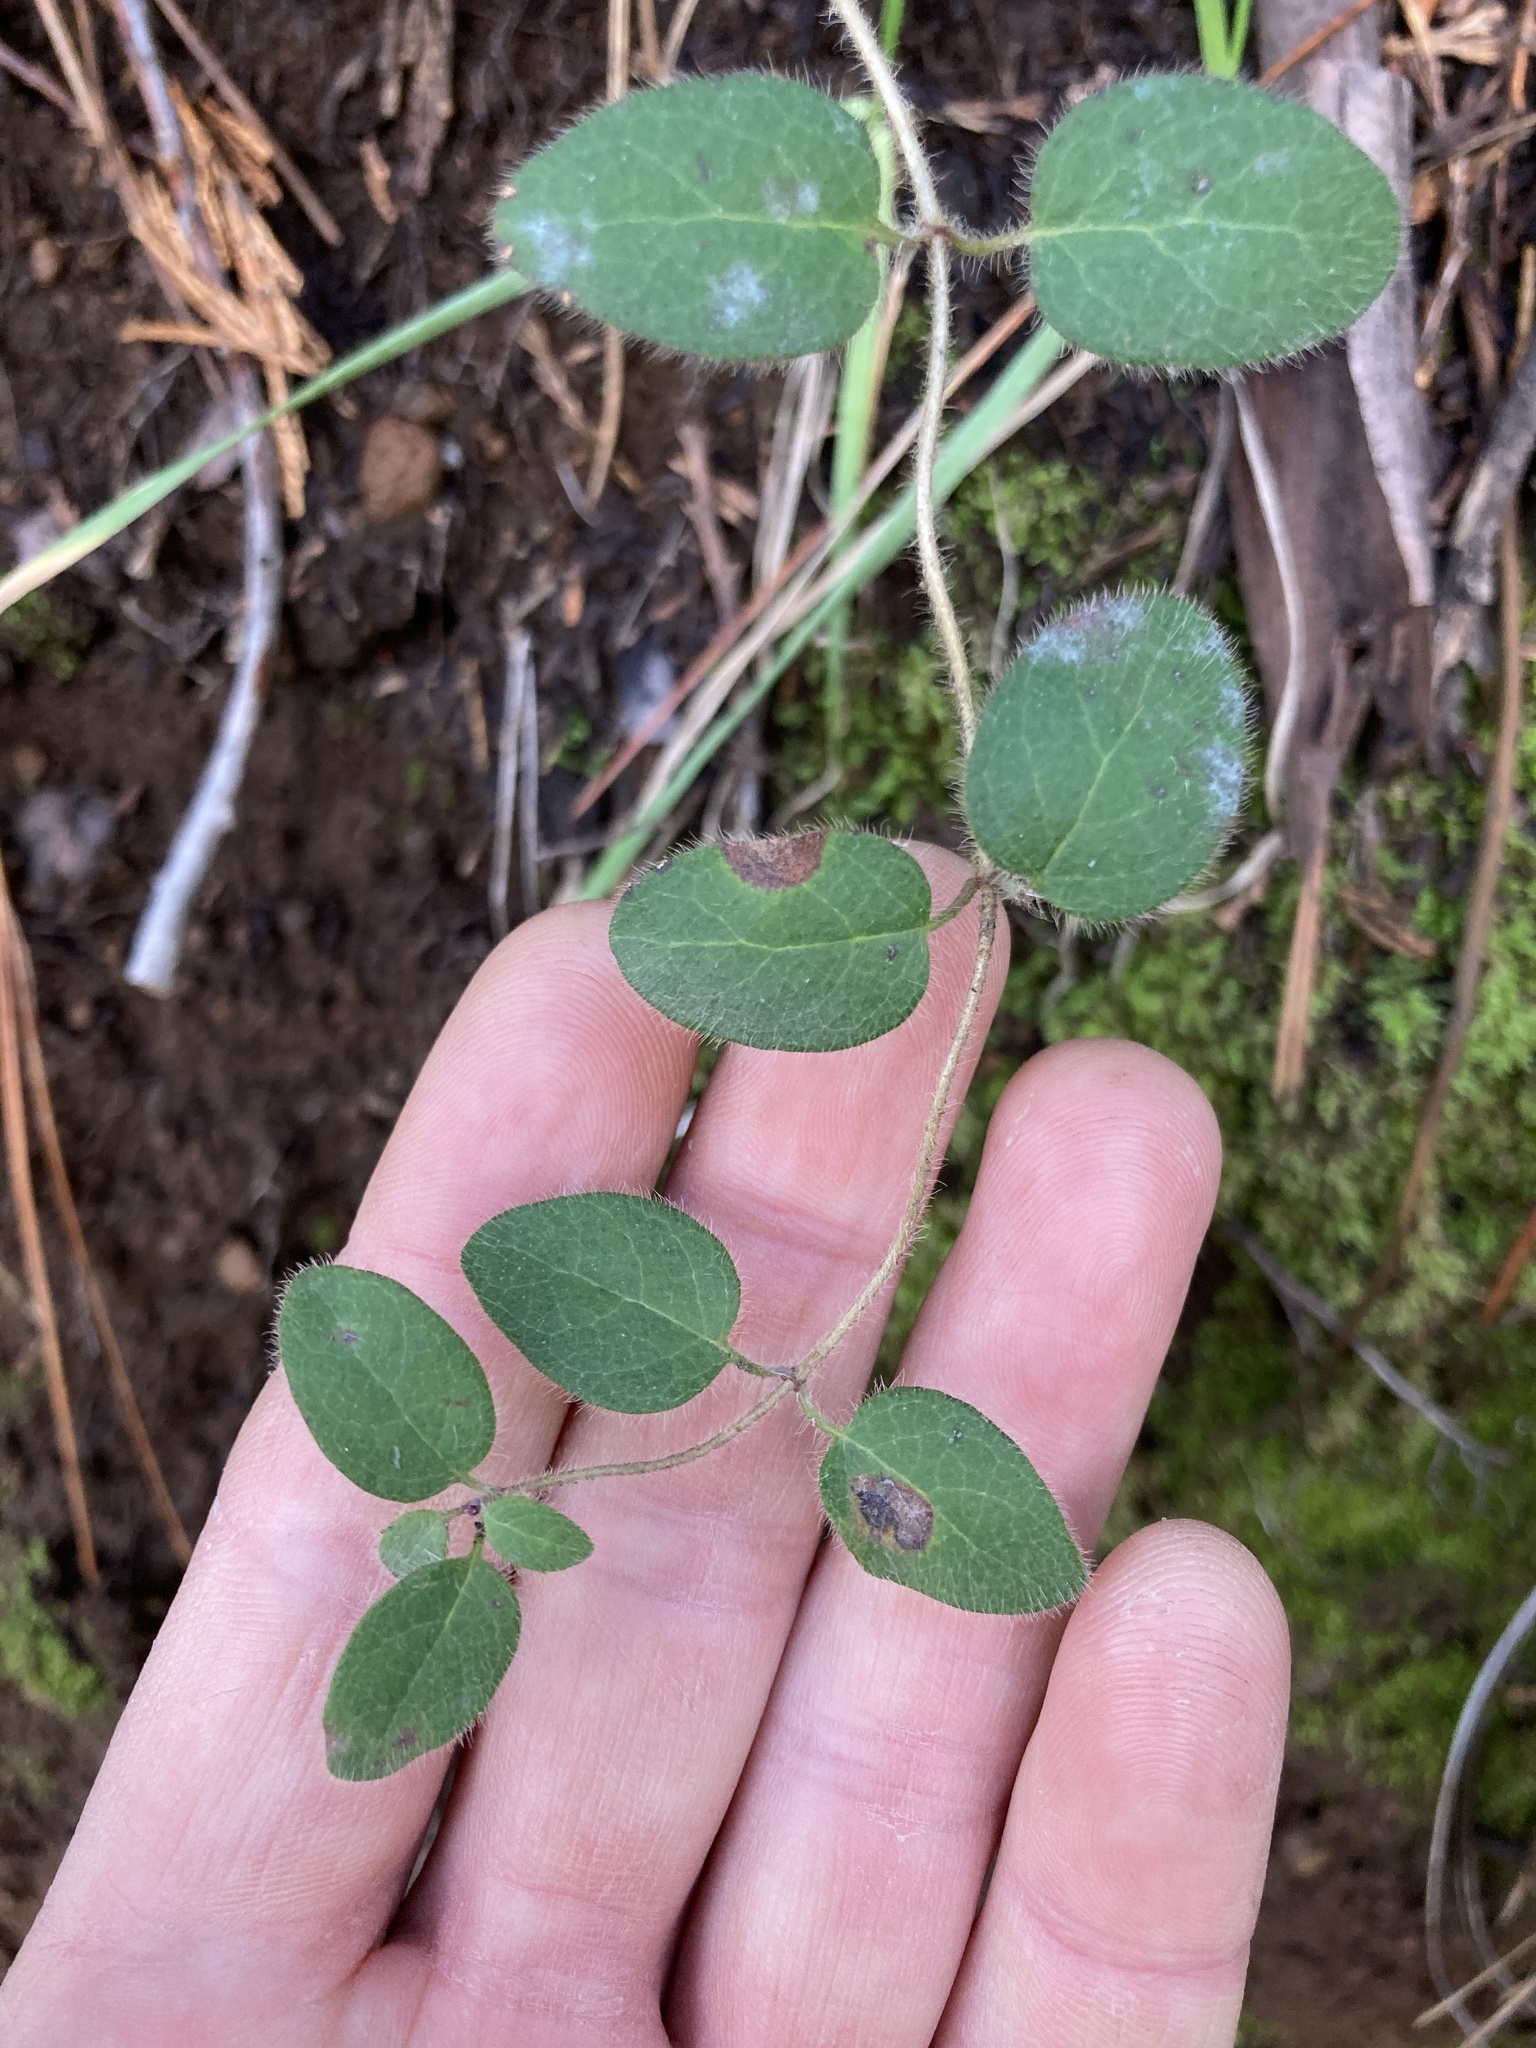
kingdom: Plantae
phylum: Tracheophyta
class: Magnoliopsida
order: Dipsacales
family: Caprifoliaceae
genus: Lonicera
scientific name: Lonicera hispidula
